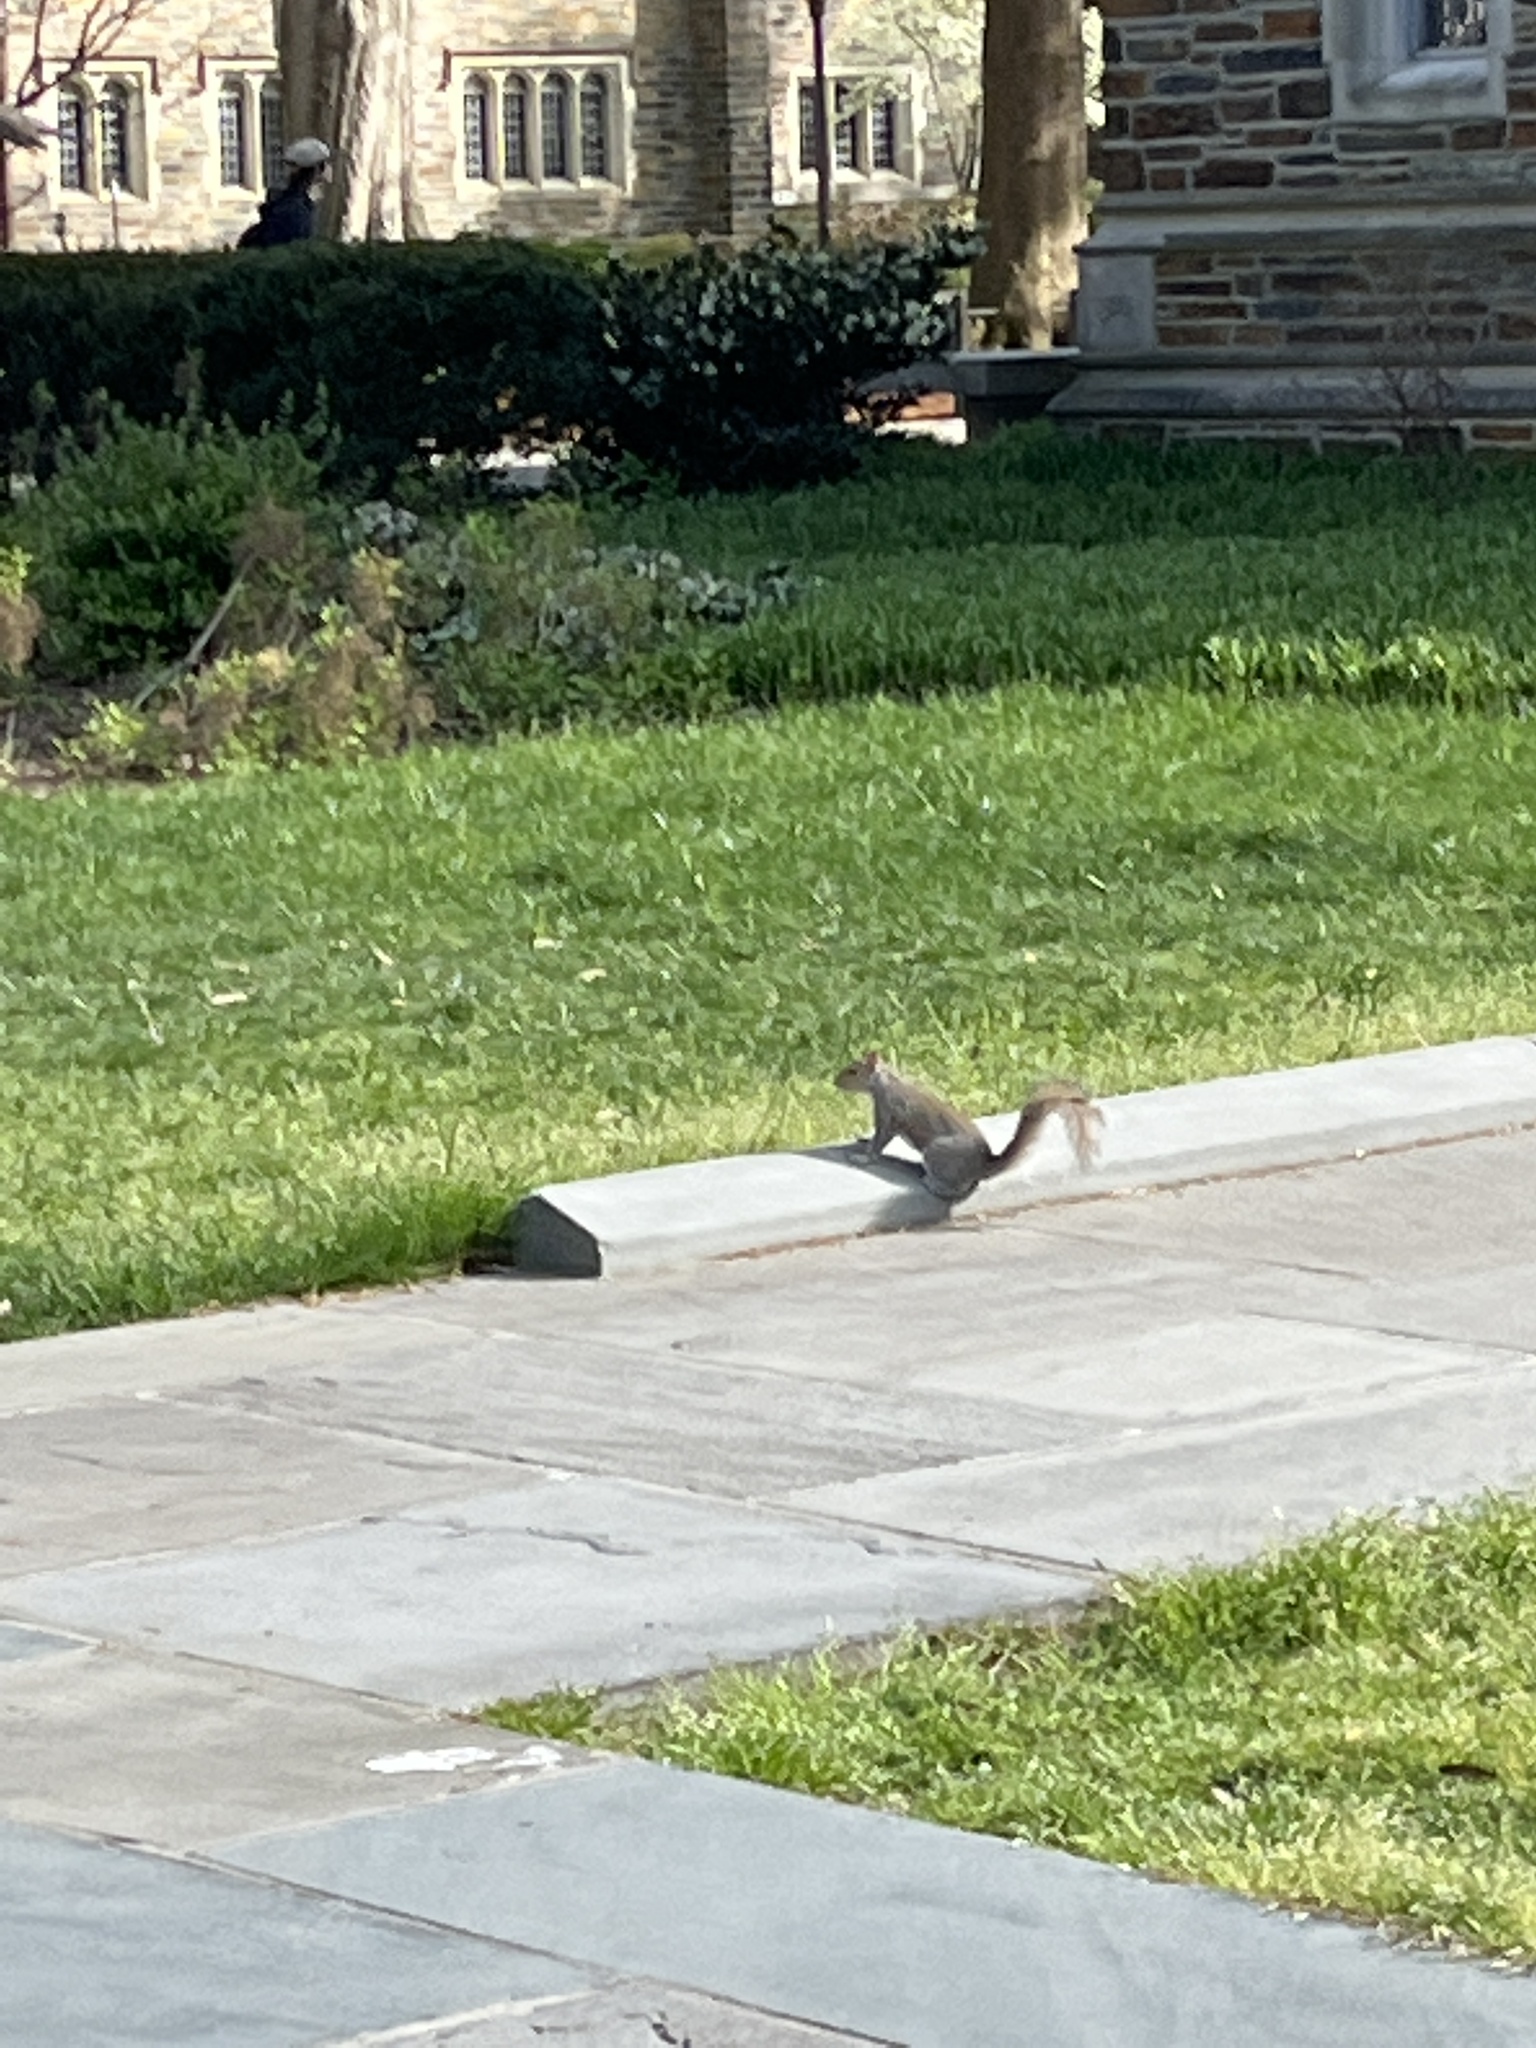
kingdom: Animalia
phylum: Chordata
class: Mammalia
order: Rodentia
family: Sciuridae
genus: Sciurus
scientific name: Sciurus carolinensis
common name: Eastern gray squirrel
